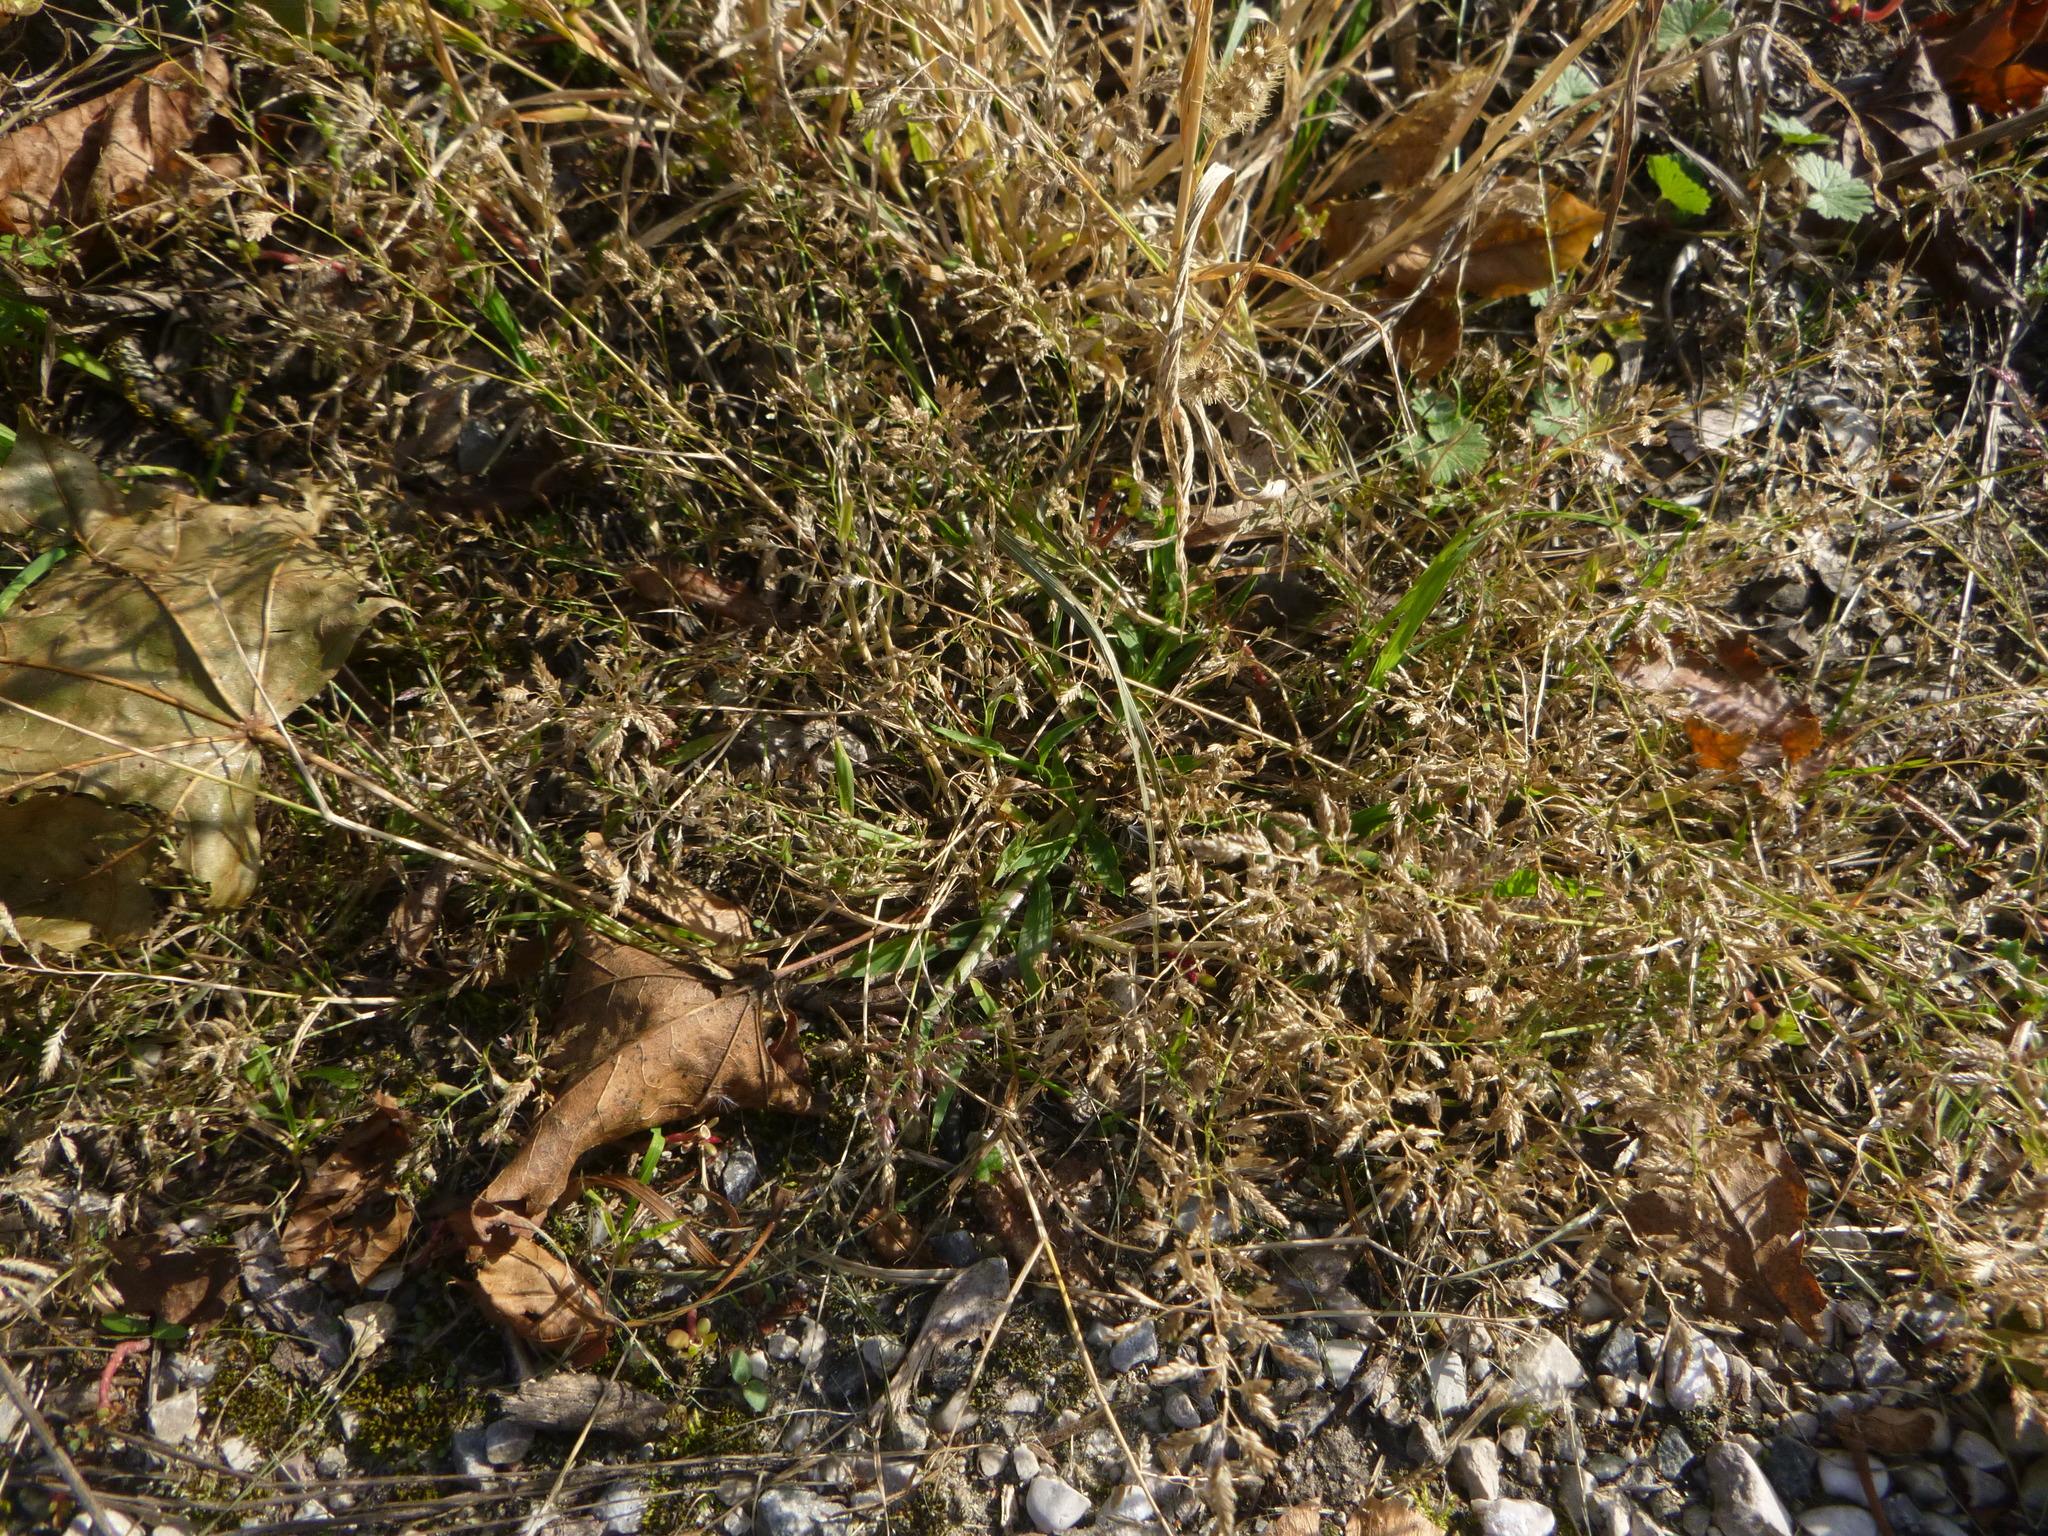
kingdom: Plantae
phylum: Tracheophyta
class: Liliopsida
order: Poales
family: Poaceae
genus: Eragrostis
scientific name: Eragrostis minor
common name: Small love-grass
